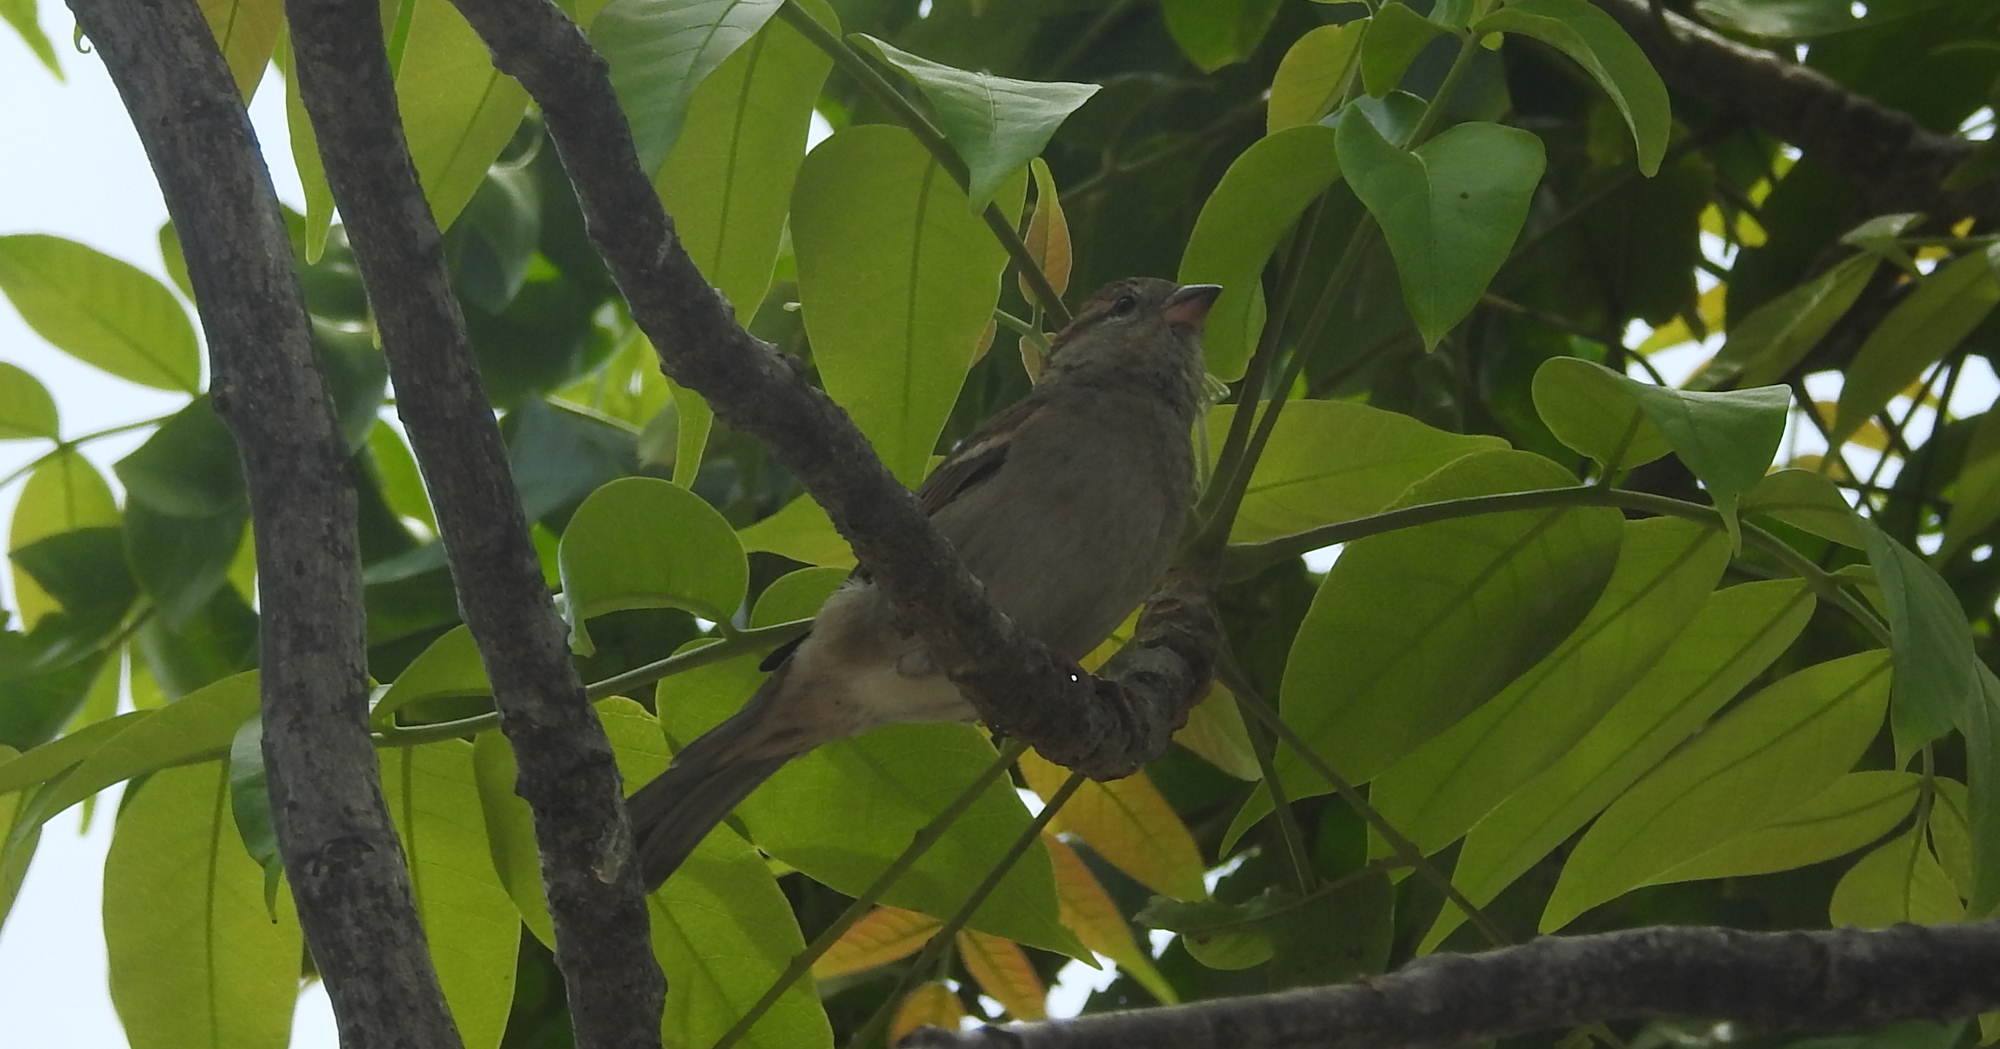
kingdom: Animalia
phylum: Chordata
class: Aves
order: Passeriformes
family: Passeridae
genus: Passer
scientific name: Passer domesticus
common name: House sparrow
